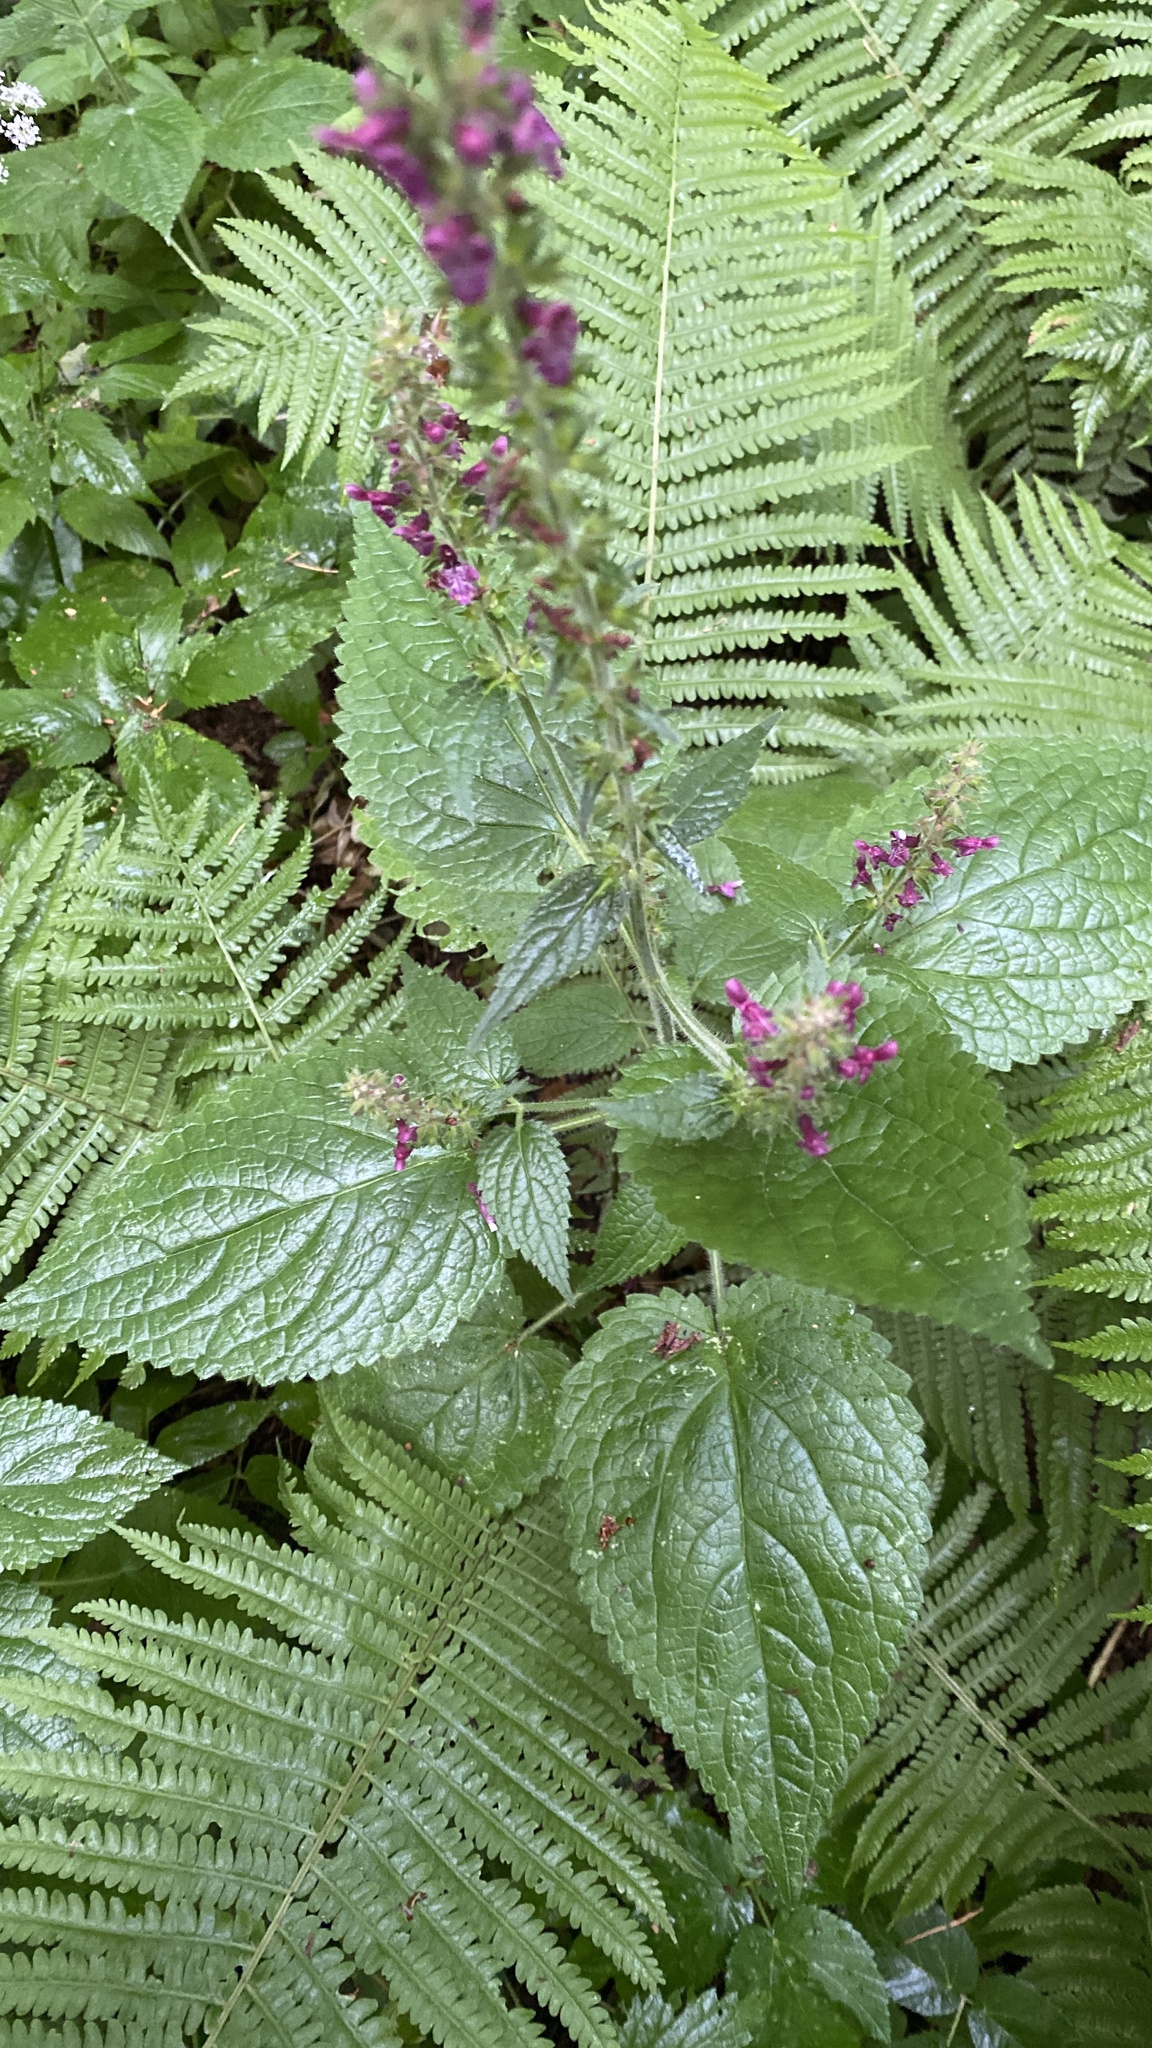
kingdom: Plantae
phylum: Tracheophyta
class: Magnoliopsida
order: Lamiales
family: Lamiaceae
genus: Stachys
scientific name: Stachys sylvatica
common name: Hedge woundwort
